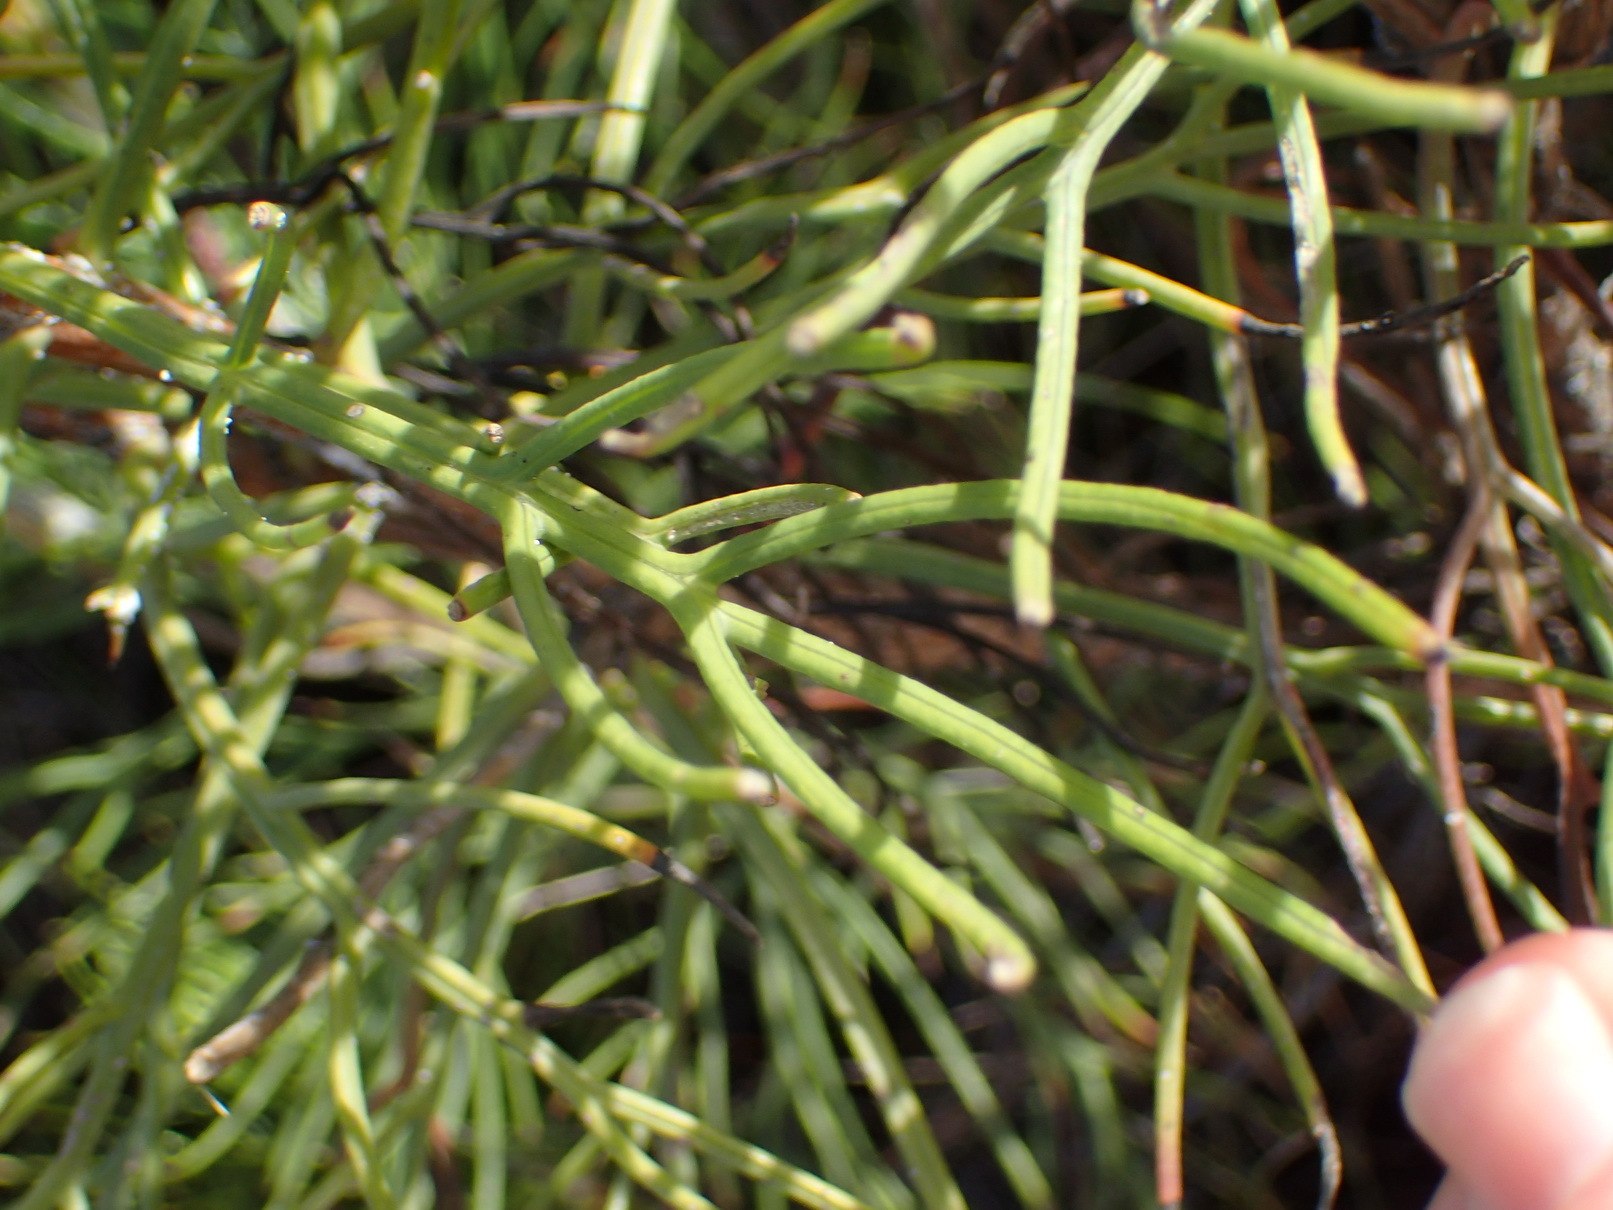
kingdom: Plantae
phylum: Tracheophyta
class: Magnoliopsida
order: Asterales
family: Asteraceae
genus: Euryops
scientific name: Euryops speciosissimus
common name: Clanwilliam daisy
